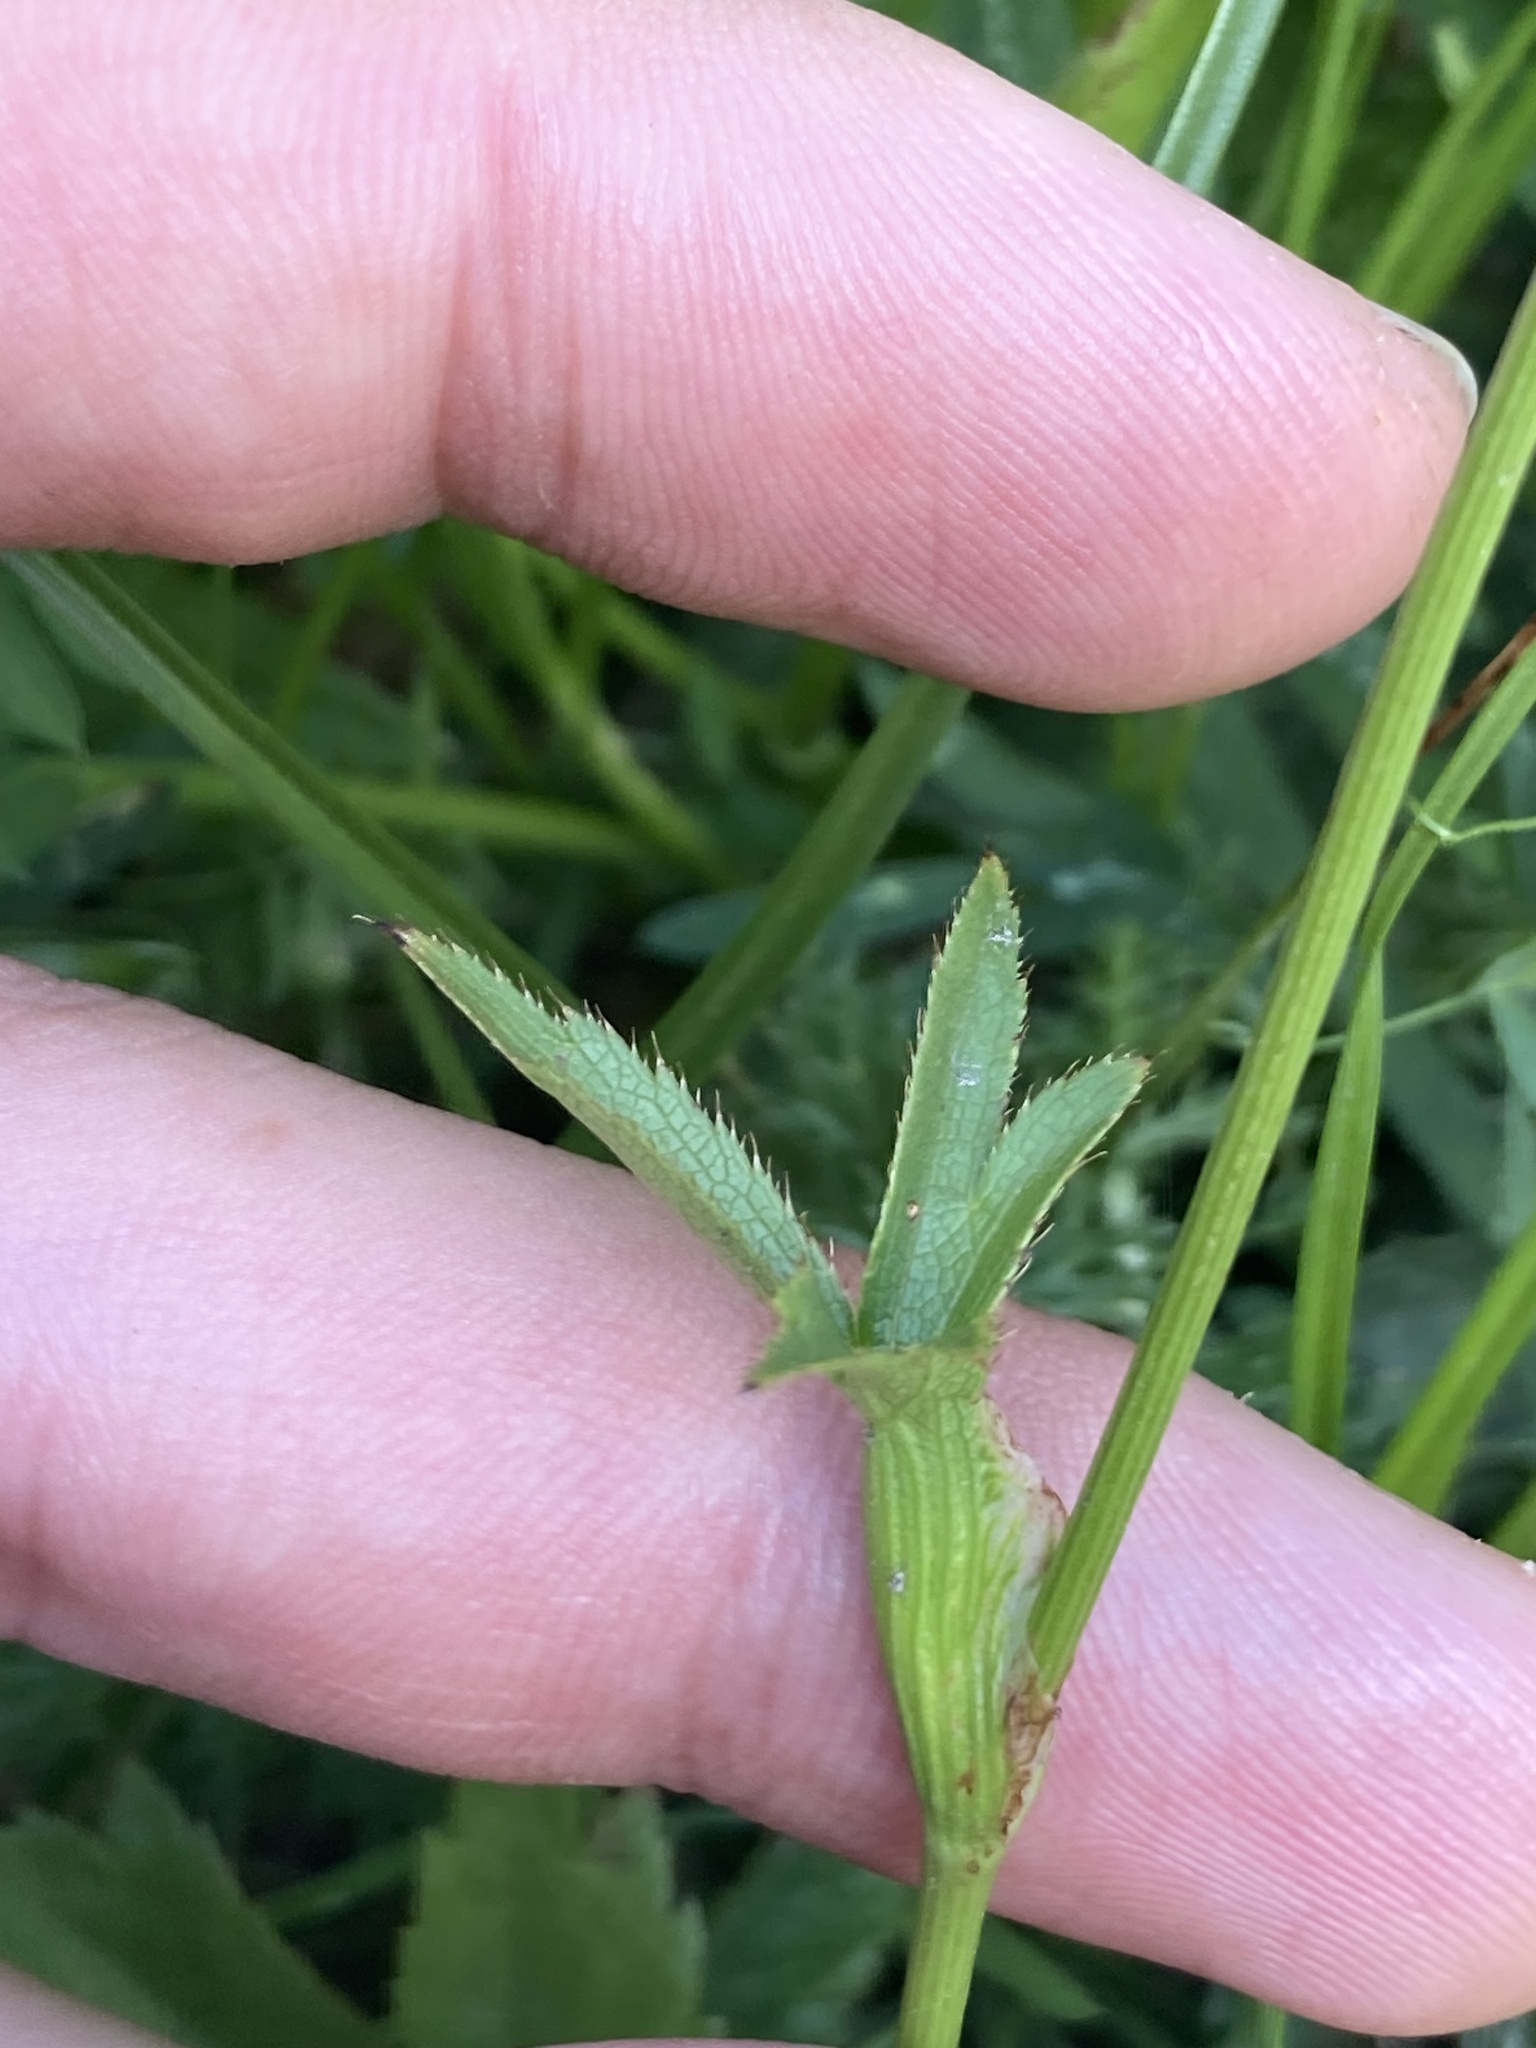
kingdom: Plantae
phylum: Tracheophyta
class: Magnoliopsida
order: Apiales
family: Apiaceae
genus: Astrantia
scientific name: Astrantia major
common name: Greater masterwort
